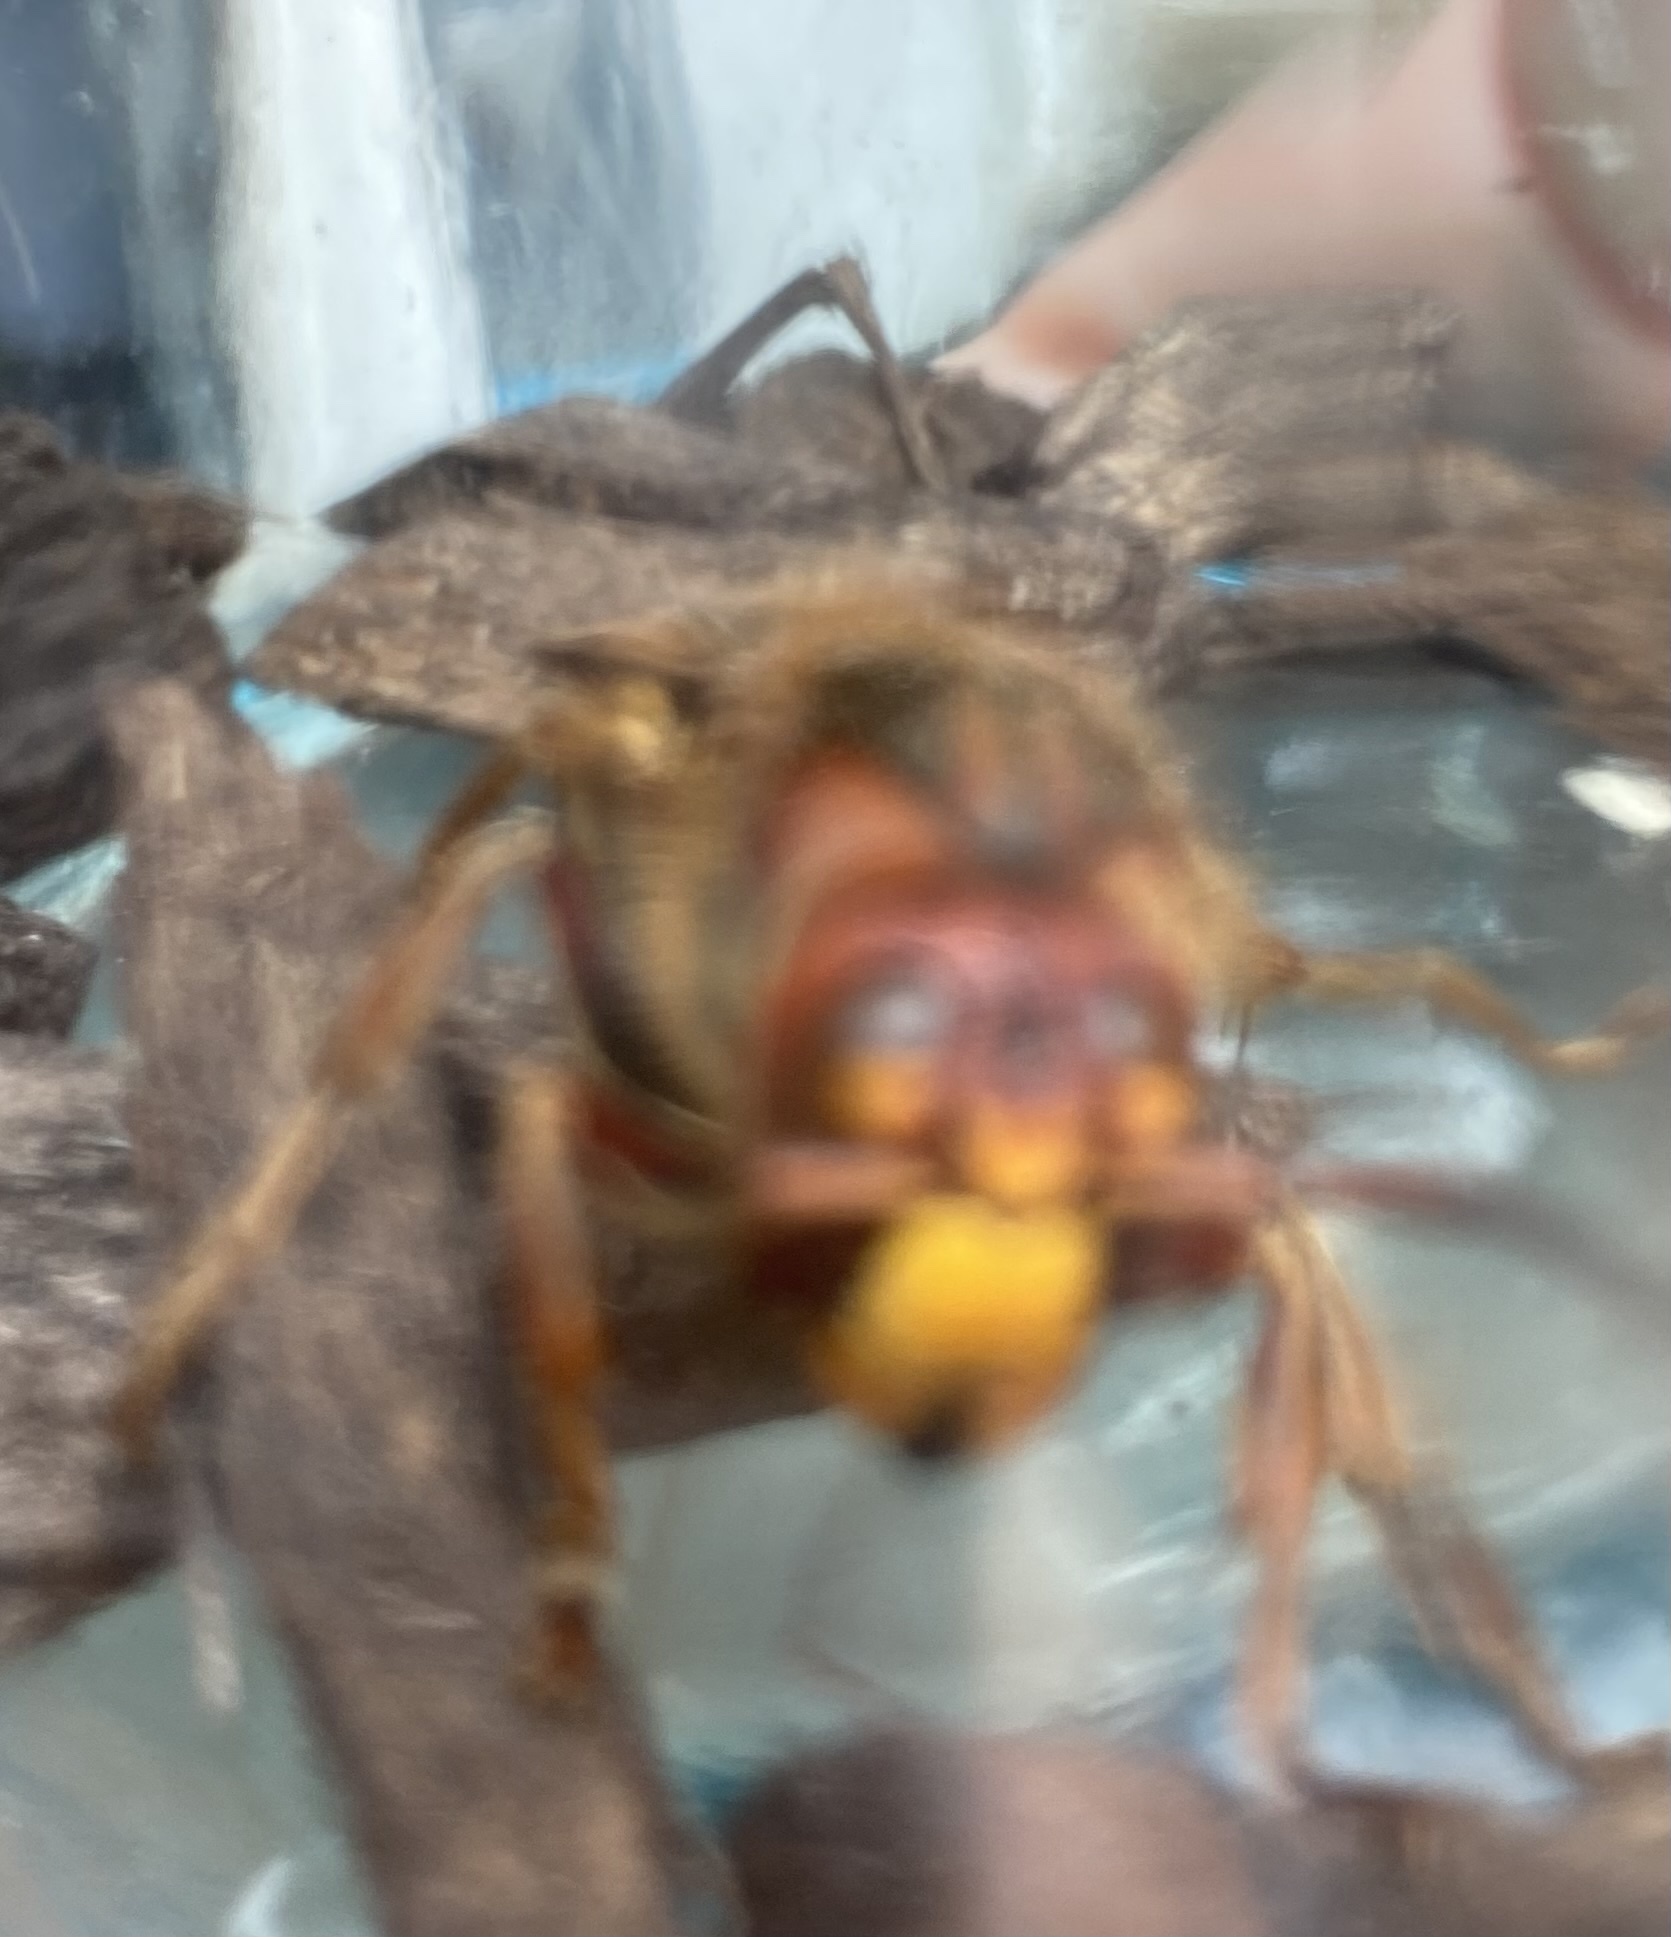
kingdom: Animalia
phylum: Arthropoda
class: Insecta
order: Hymenoptera
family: Vespidae
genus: Vespa
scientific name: Vespa crabro
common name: Hornet
